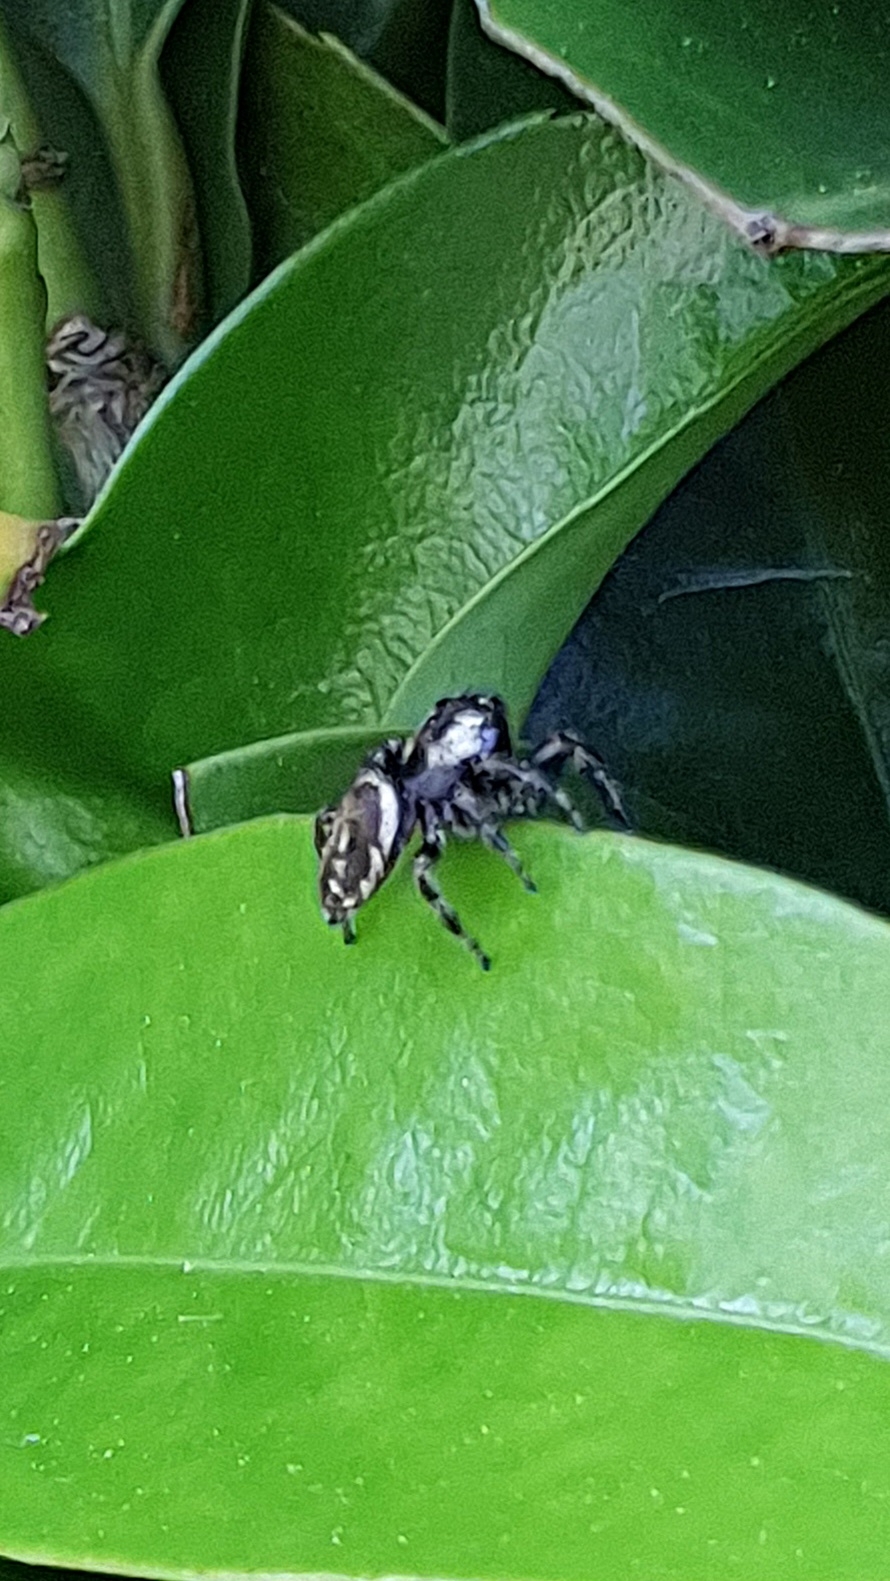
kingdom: Animalia
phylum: Arthropoda
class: Arachnida
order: Araneae
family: Salticidae
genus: Macaroeris
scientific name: Macaroeris nidicolens
